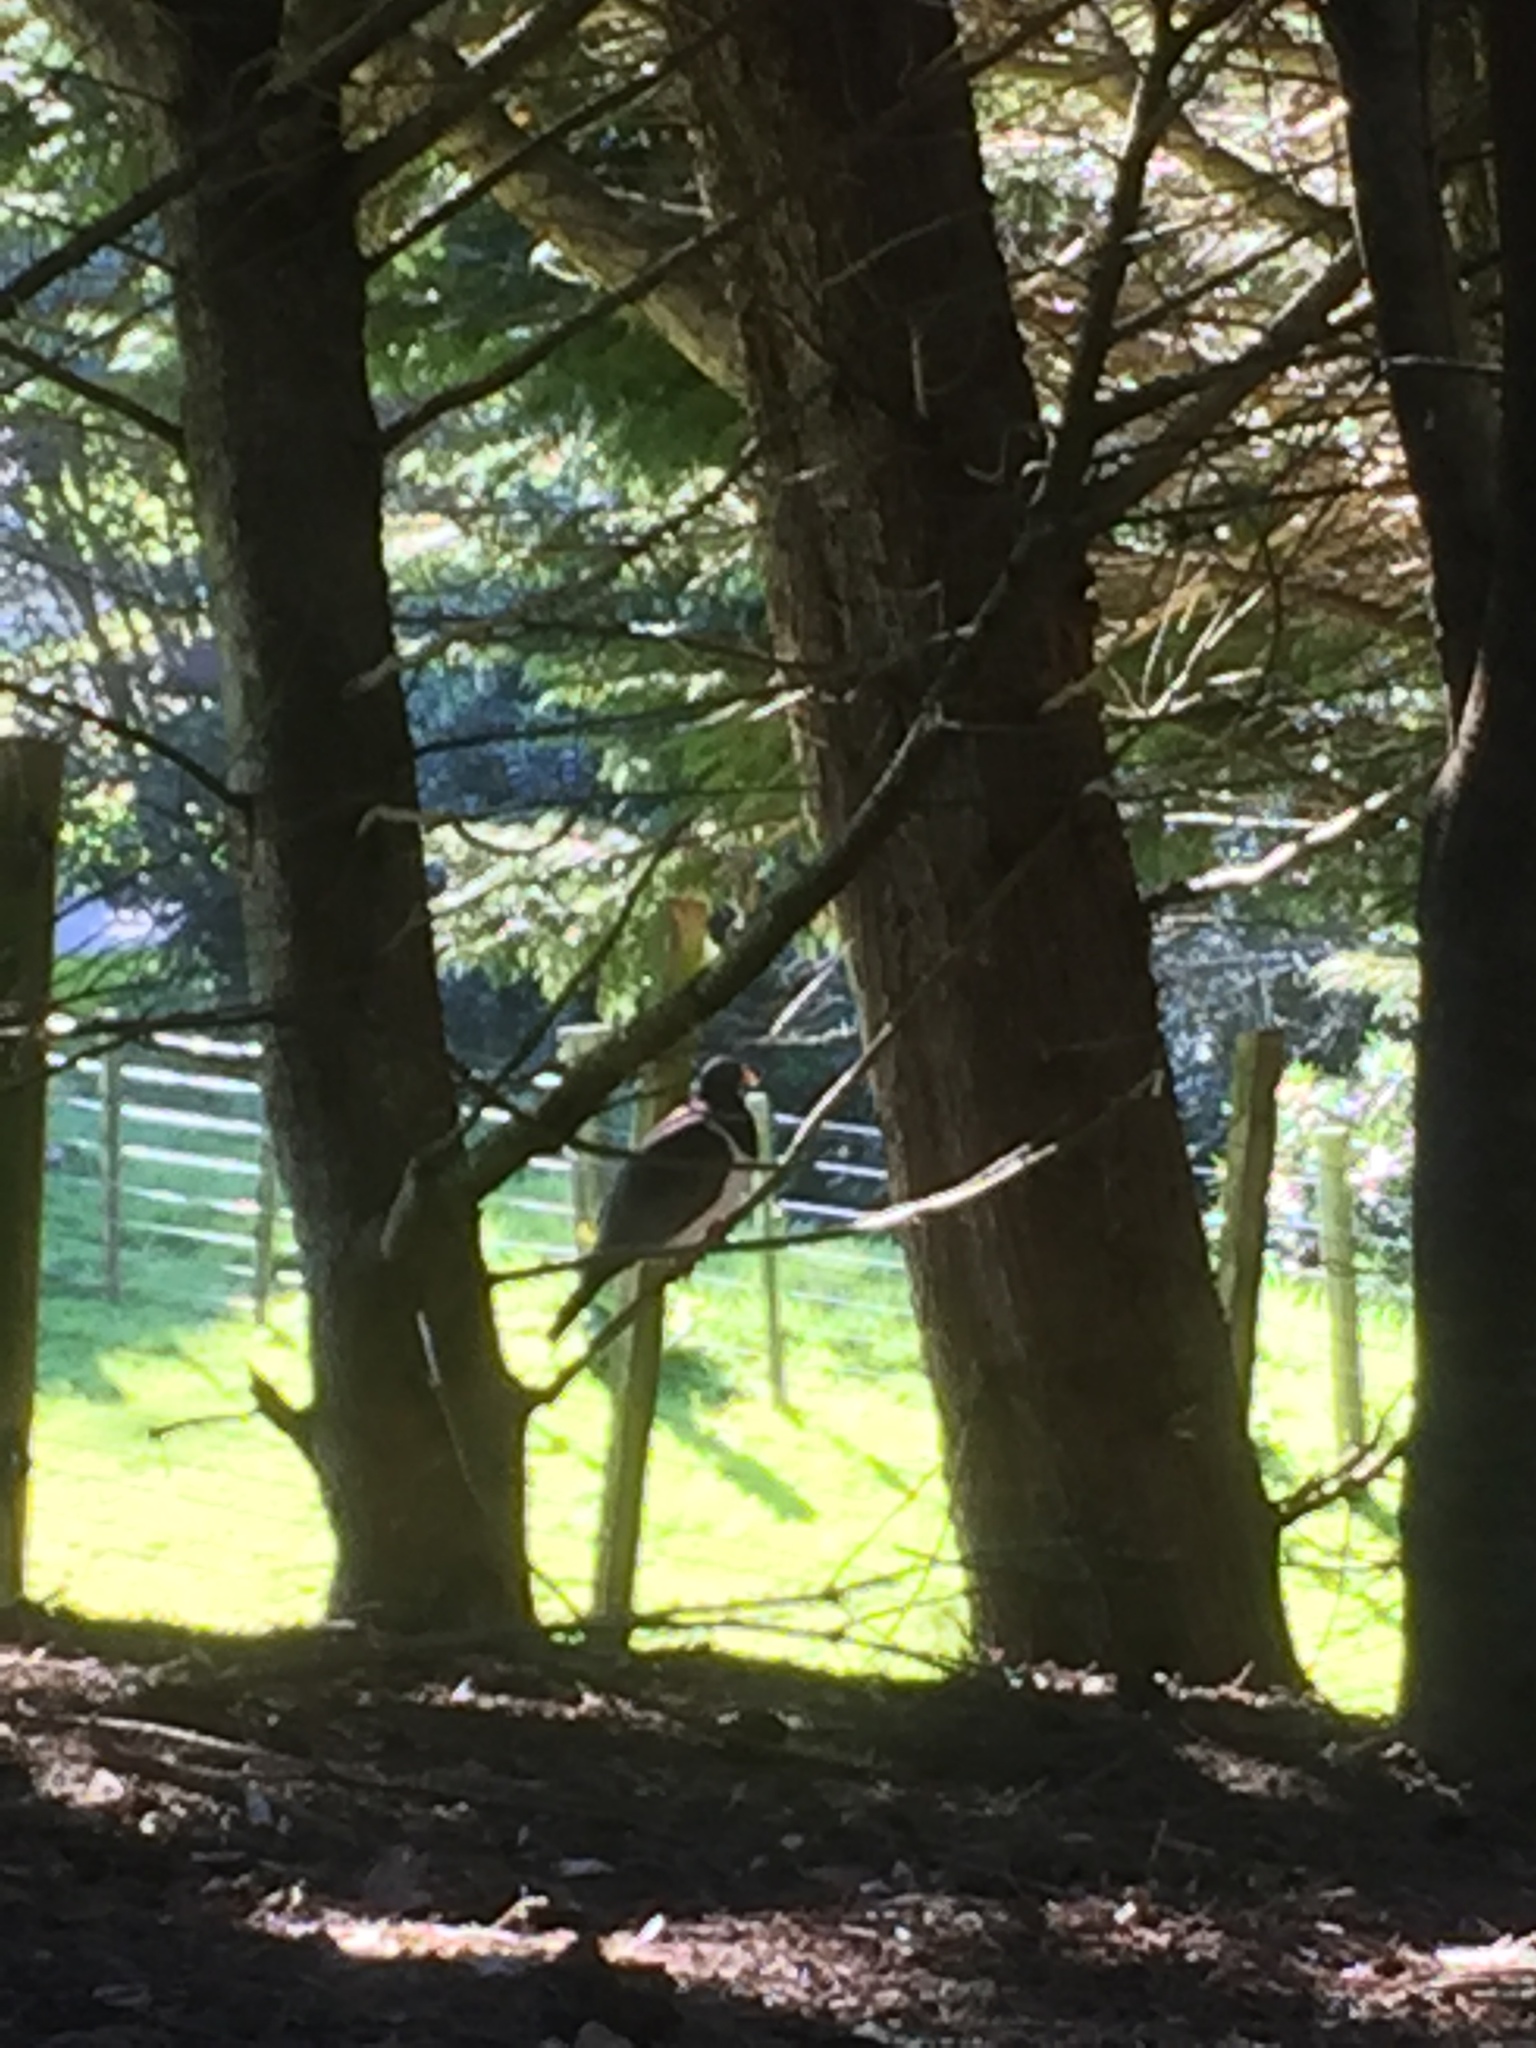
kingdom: Animalia
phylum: Chordata
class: Aves
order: Columbiformes
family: Columbidae
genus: Hemiphaga
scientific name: Hemiphaga novaeseelandiae
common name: New zealand pigeon
